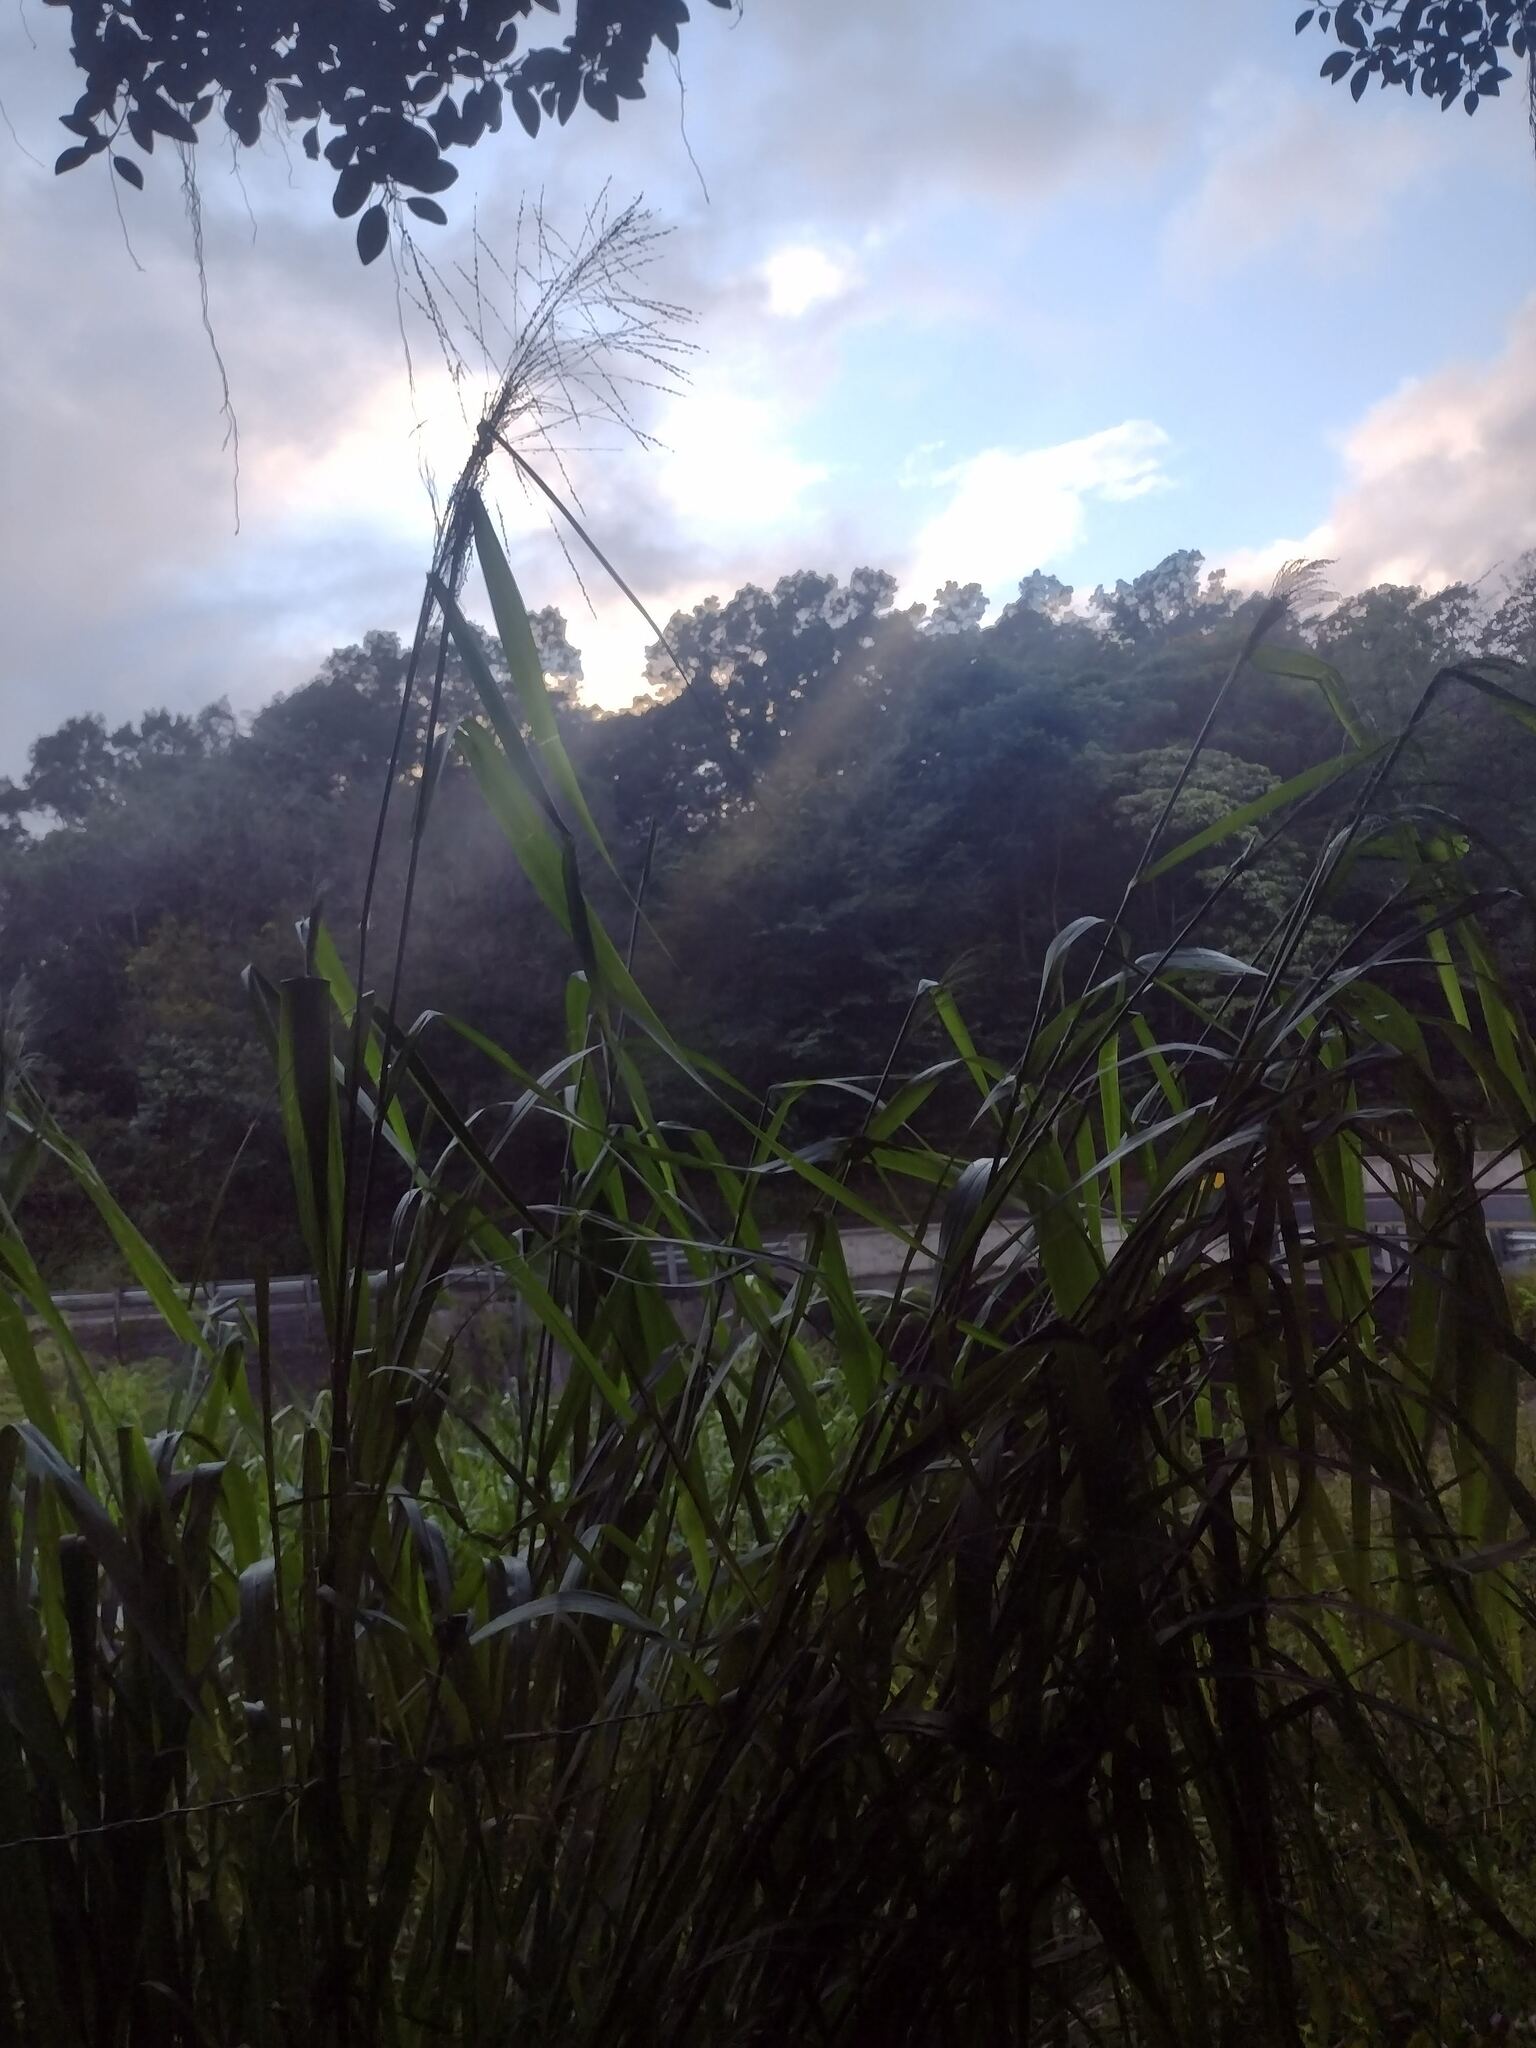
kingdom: Plantae
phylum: Tracheophyta
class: Liliopsida
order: Poales
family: Poaceae
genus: Megathyrsus
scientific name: Megathyrsus maximus
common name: Guineagrass
